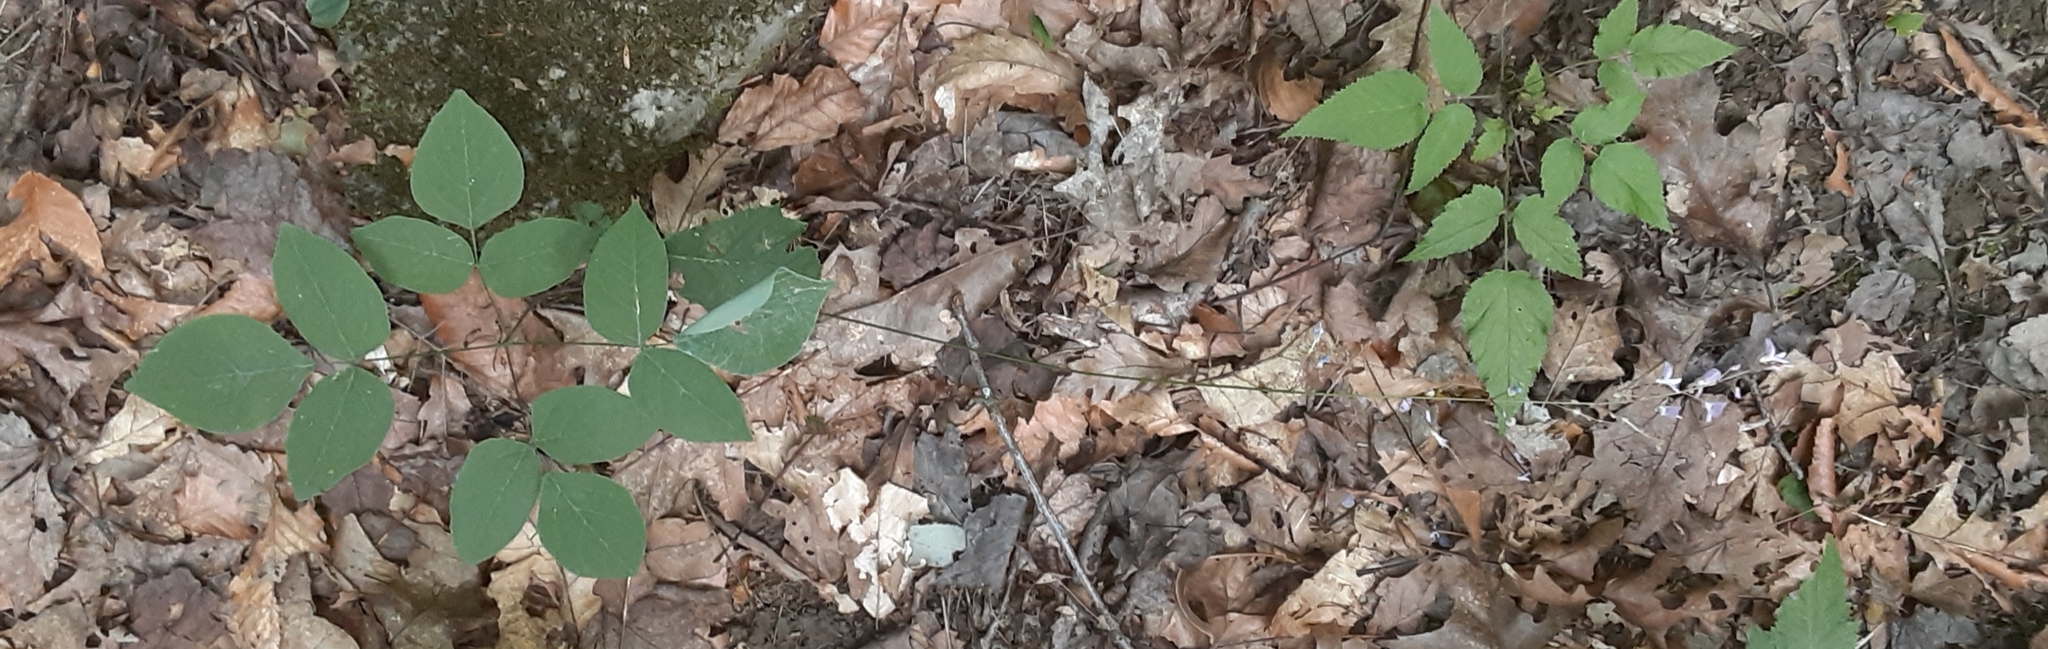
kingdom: Plantae
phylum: Tracheophyta
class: Magnoliopsida
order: Fabales
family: Fabaceae
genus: Hylodesmum
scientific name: Hylodesmum nudiflorum
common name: Bare-stemmed tick-trefoil
